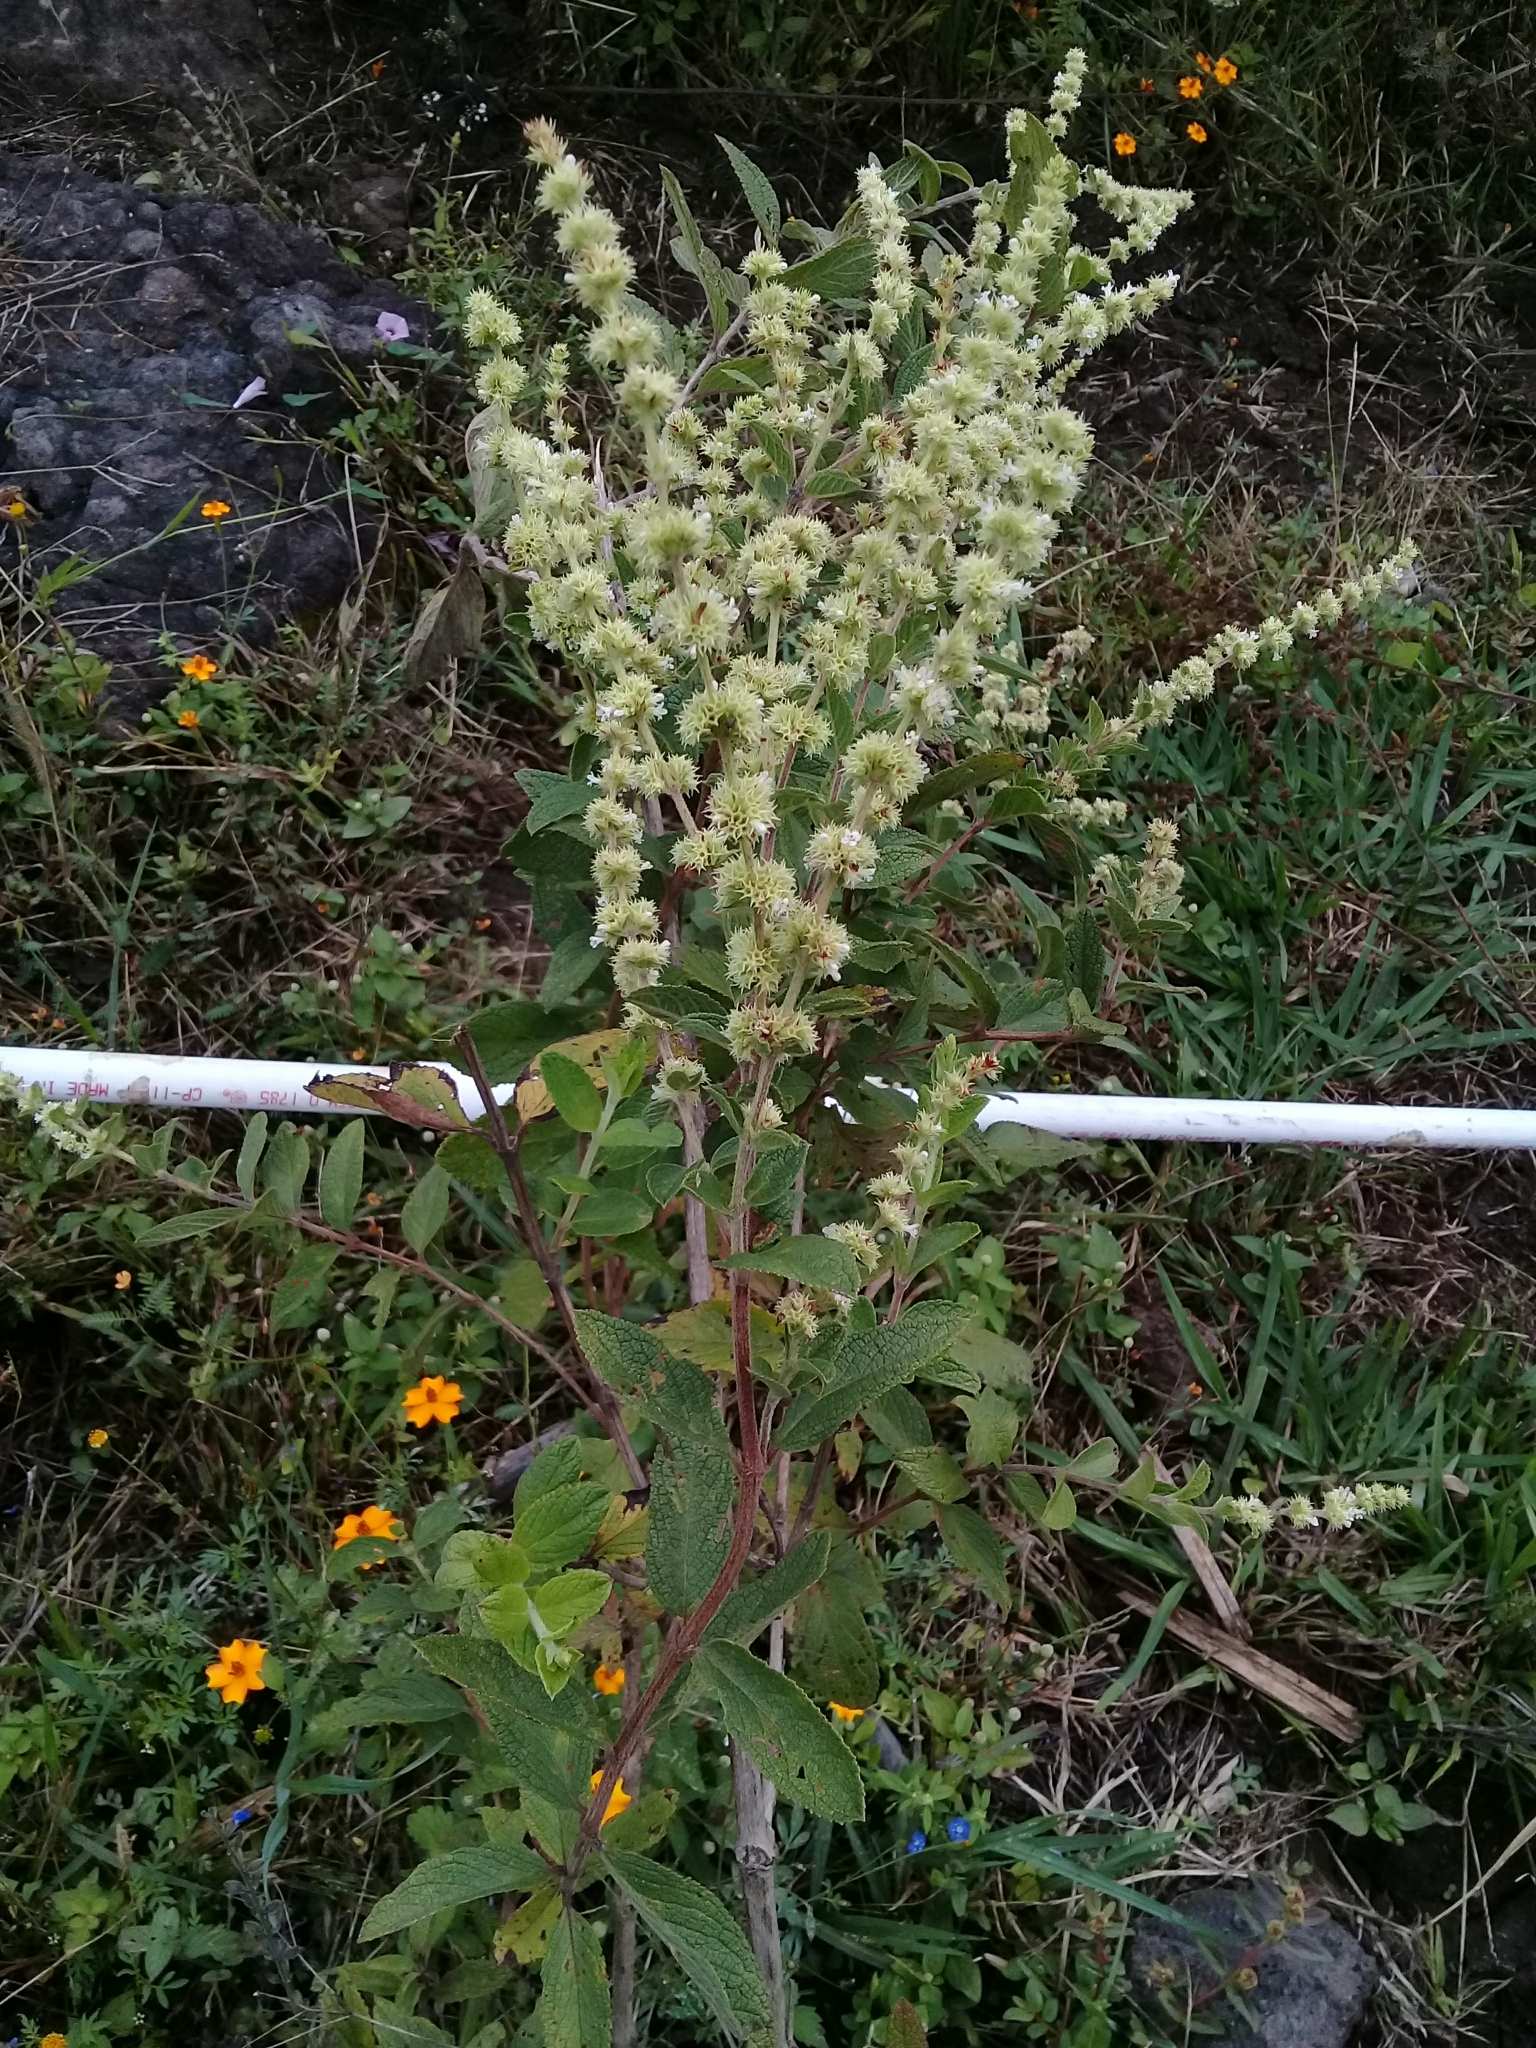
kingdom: Plantae
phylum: Tracheophyta
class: Magnoliopsida
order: Lamiales
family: Lamiaceae
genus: Asterohyptis
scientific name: Asterohyptis stellulata
